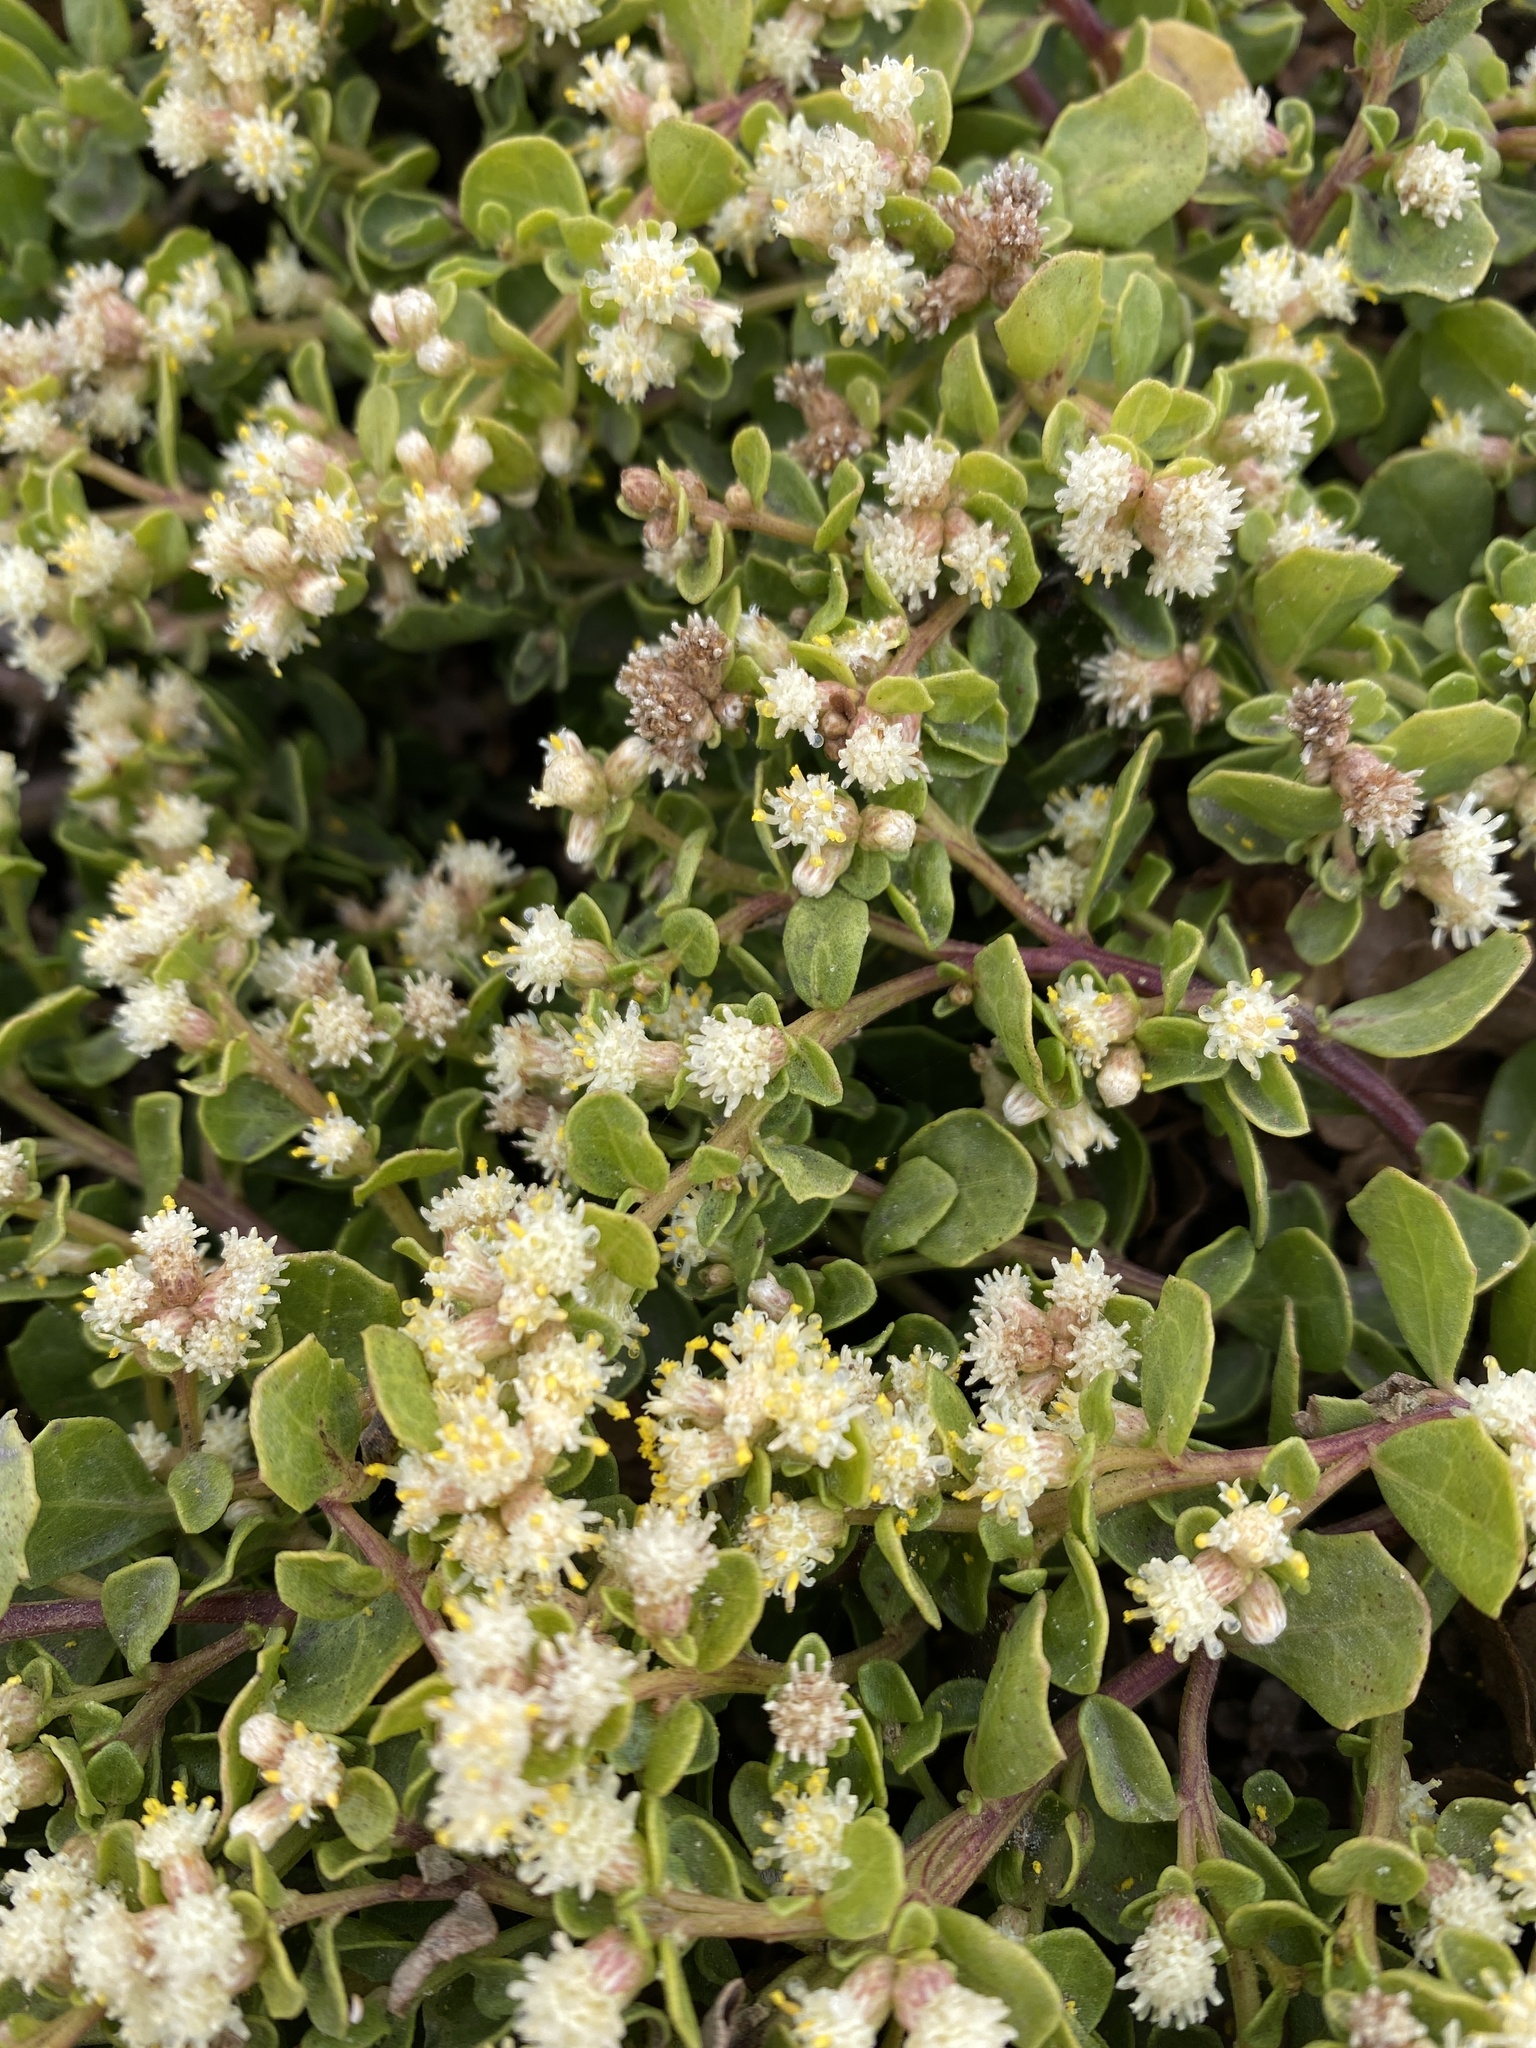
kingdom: Plantae
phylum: Tracheophyta
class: Magnoliopsida
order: Asterales
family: Asteraceae
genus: Baccharis
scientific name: Baccharis pilularis
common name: Coyotebrush
